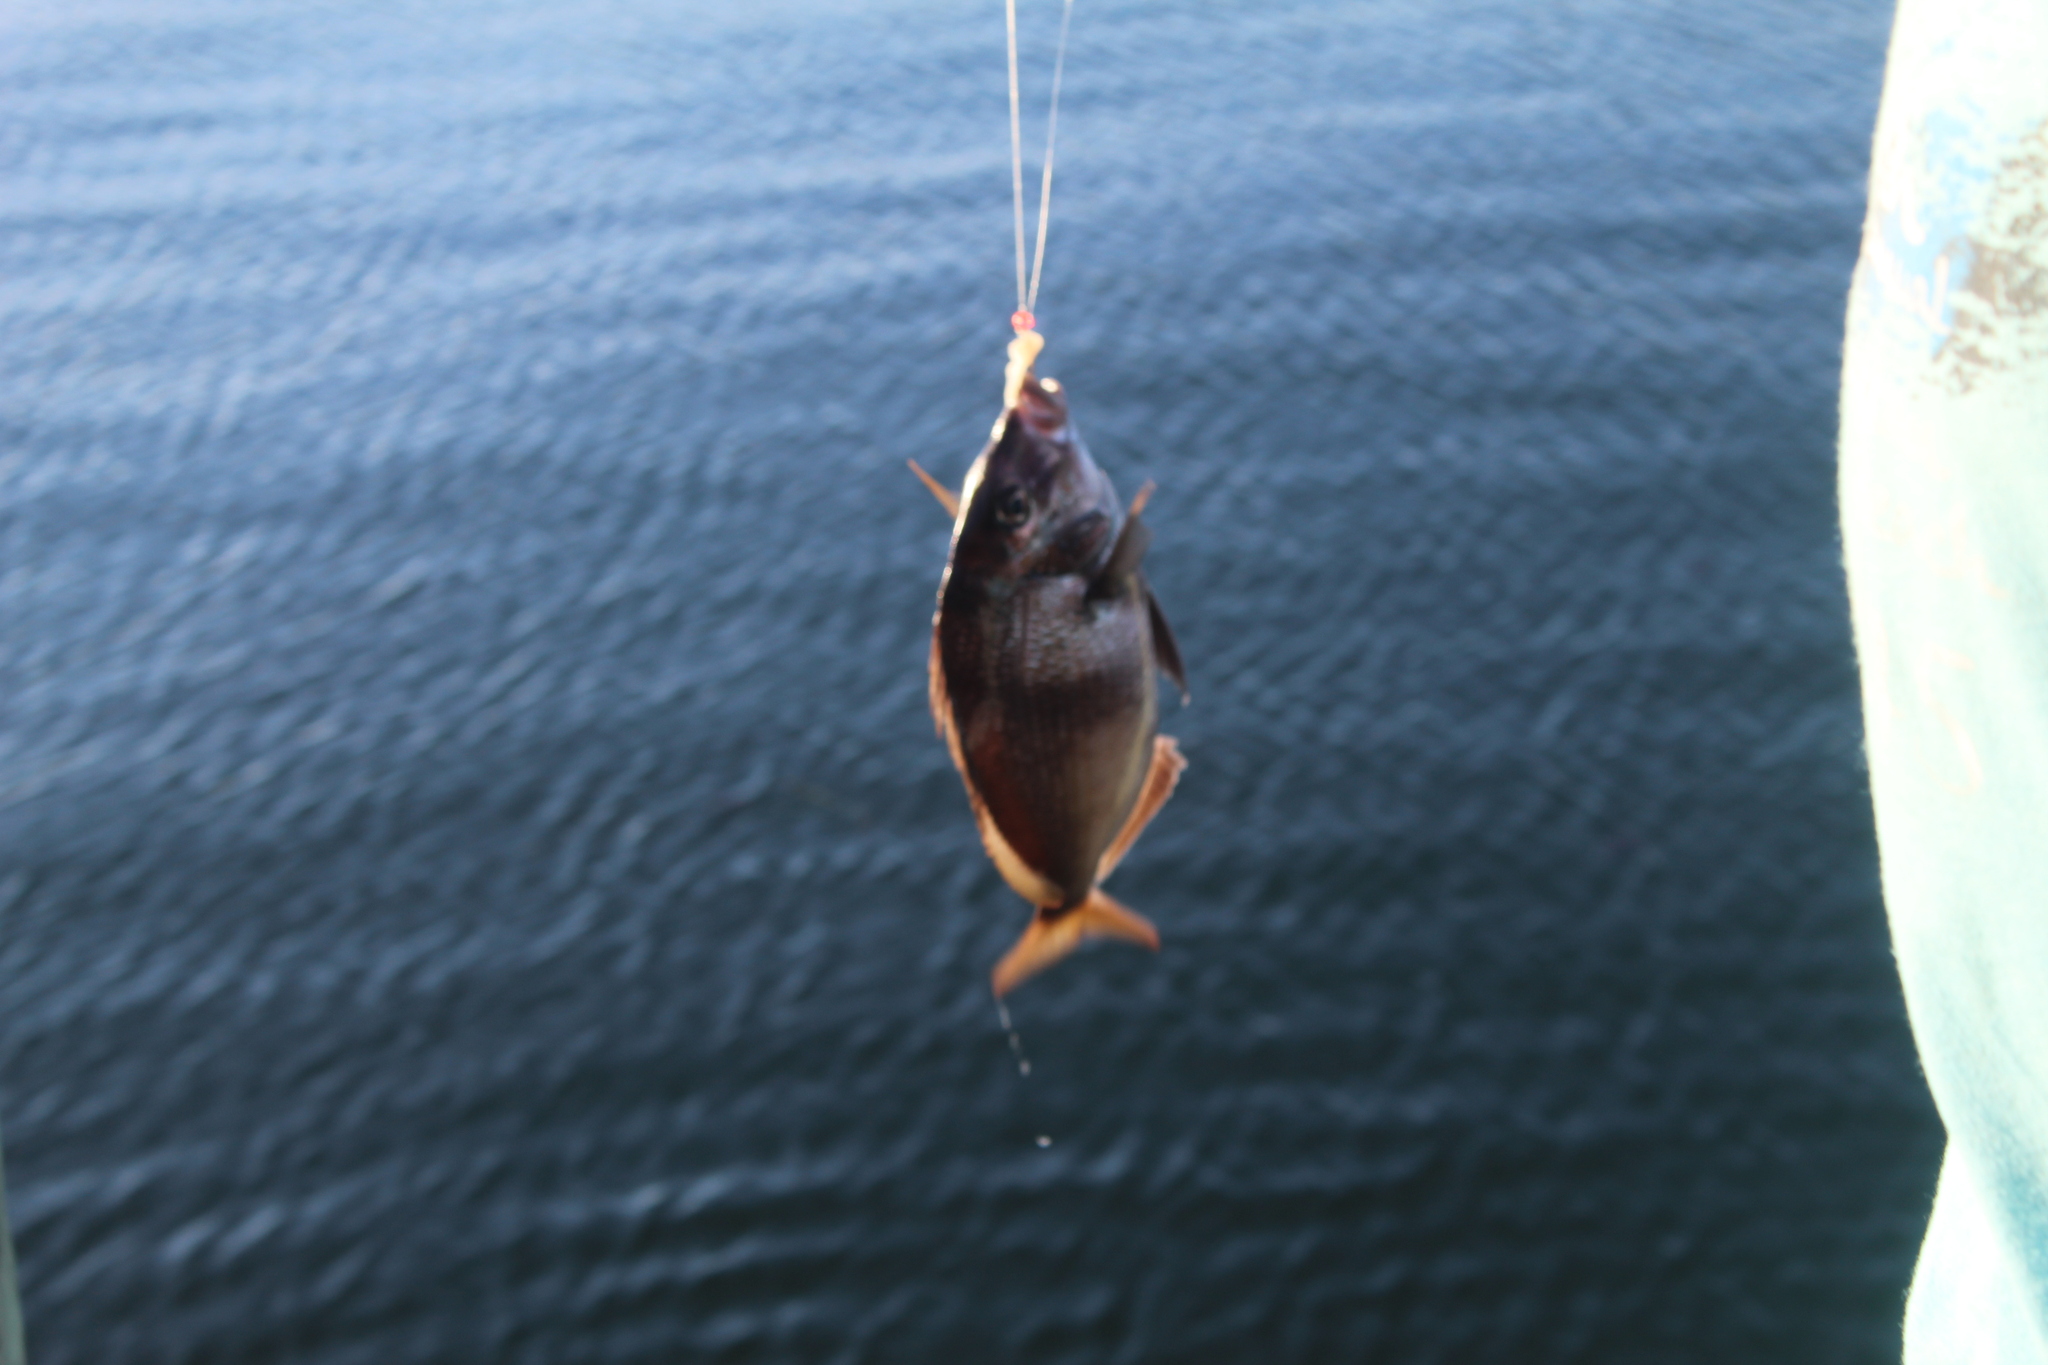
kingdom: Animalia
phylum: Chordata
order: Perciformes
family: Sparidae
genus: Stenotomus
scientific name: Stenotomus chrysops
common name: Scup
